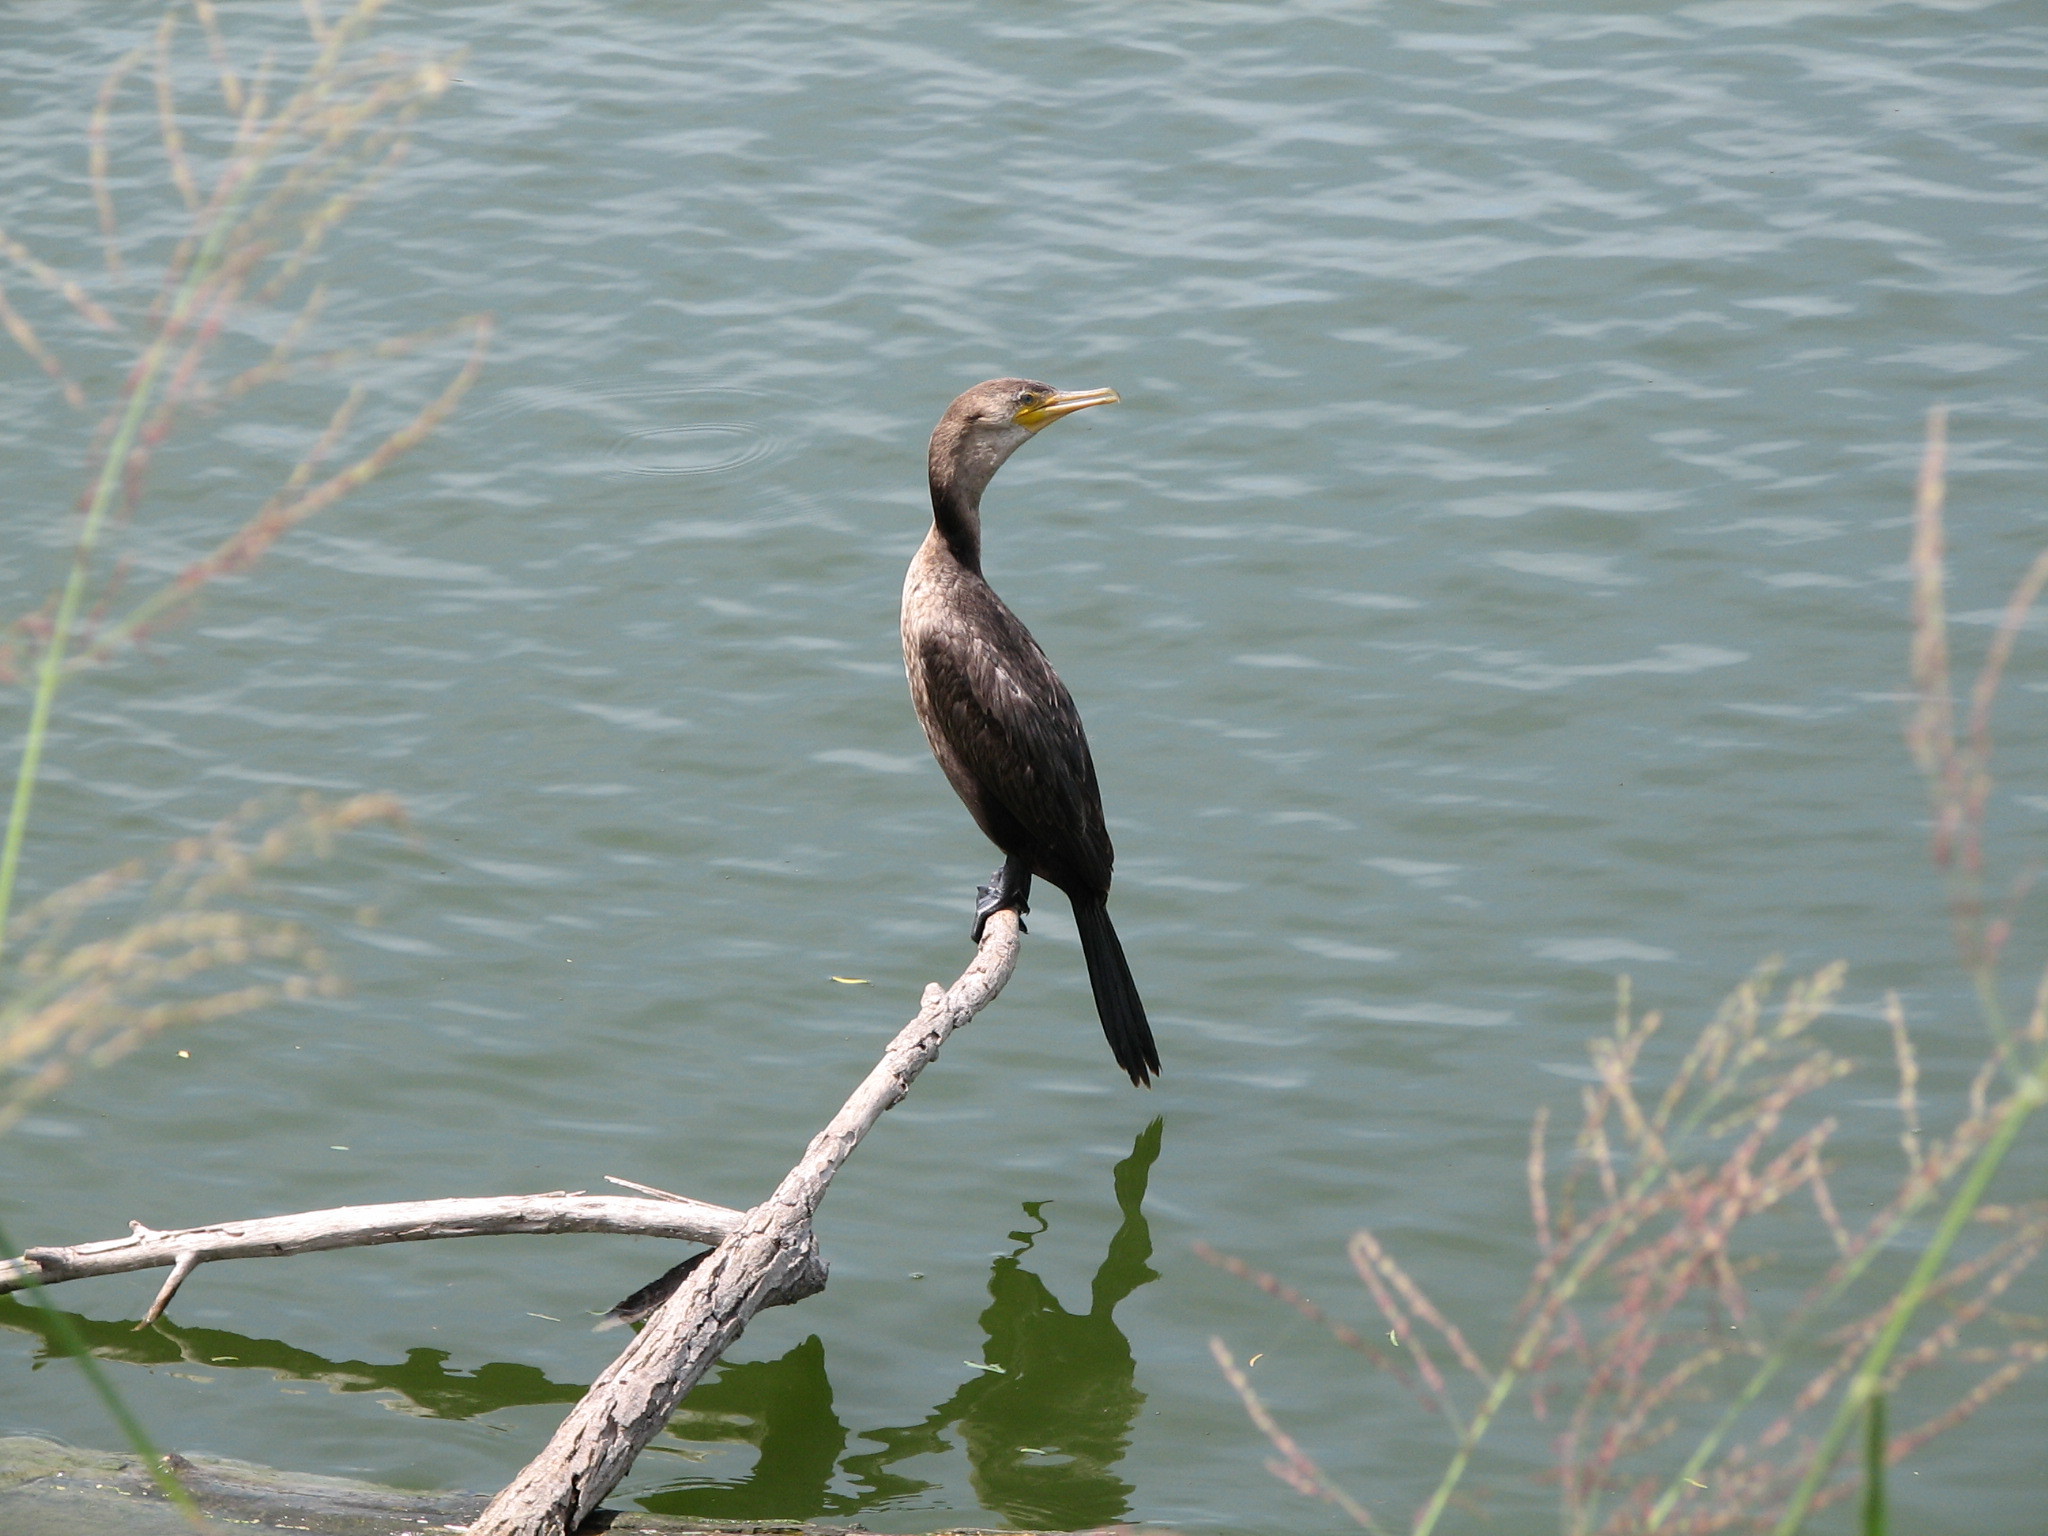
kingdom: Animalia
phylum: Chordata
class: Aves
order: Suliformes
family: Phalacrocoracidae
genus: Phalacrocorax
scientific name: Phalacrocorax auritus
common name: Double-crested cormorant
